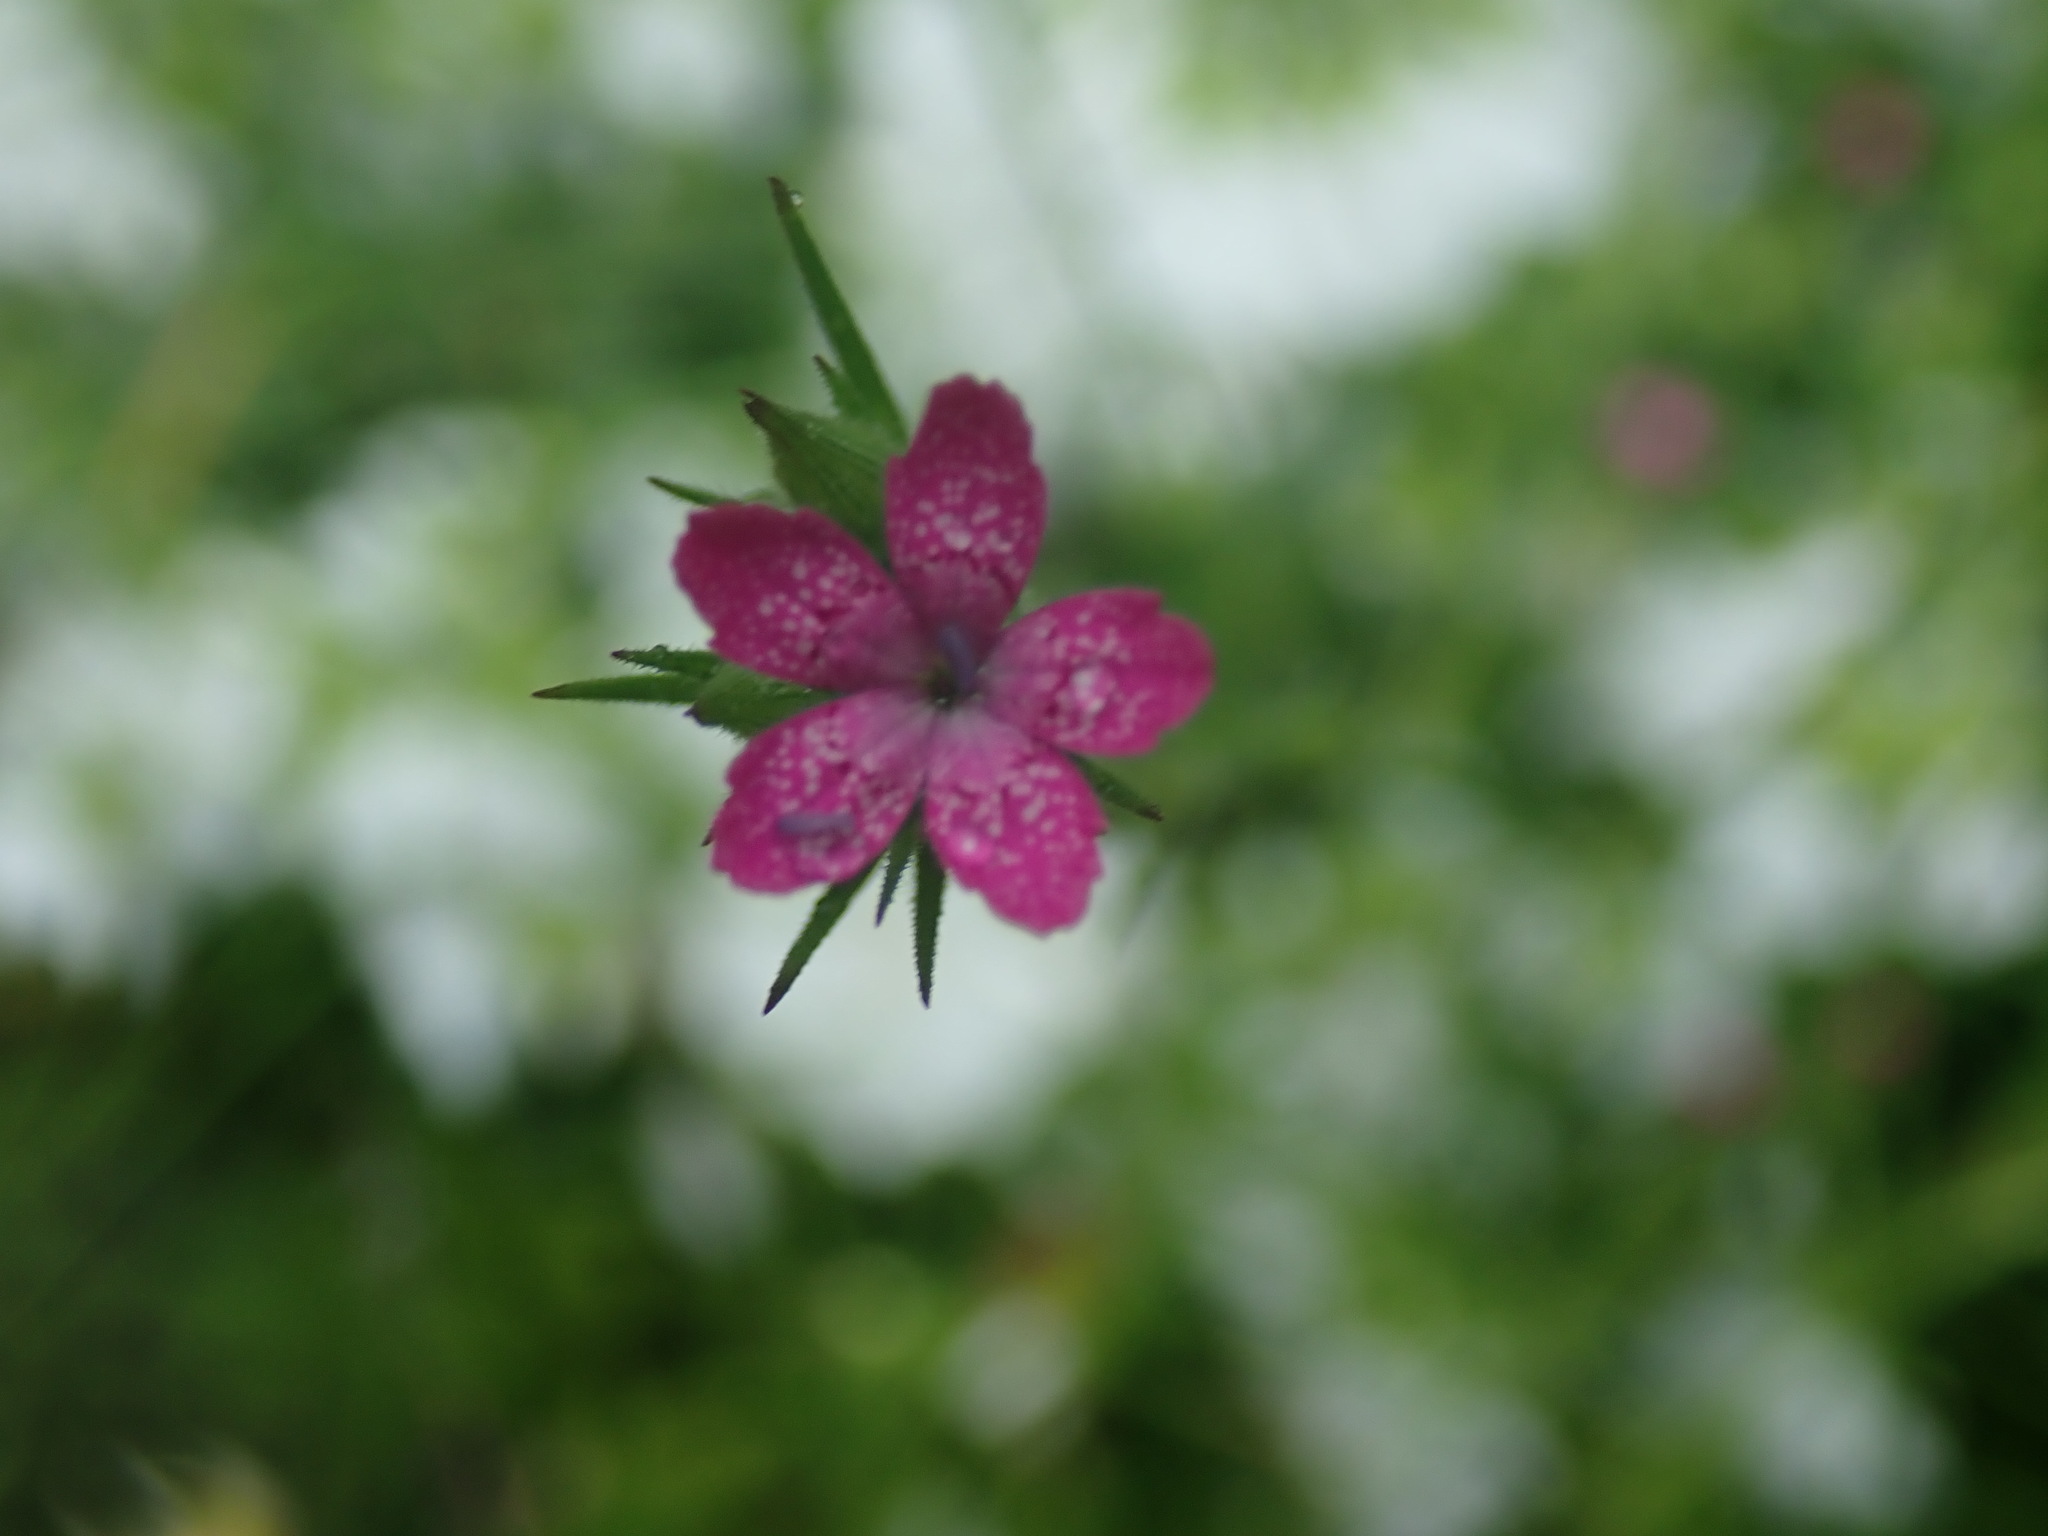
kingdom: Plantae
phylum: Tracheophyta
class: Magnoliopsida
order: Caryophyllales
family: Caryophyllaceae
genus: Dianthus
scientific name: Dianthus armeria
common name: Deptford pink
